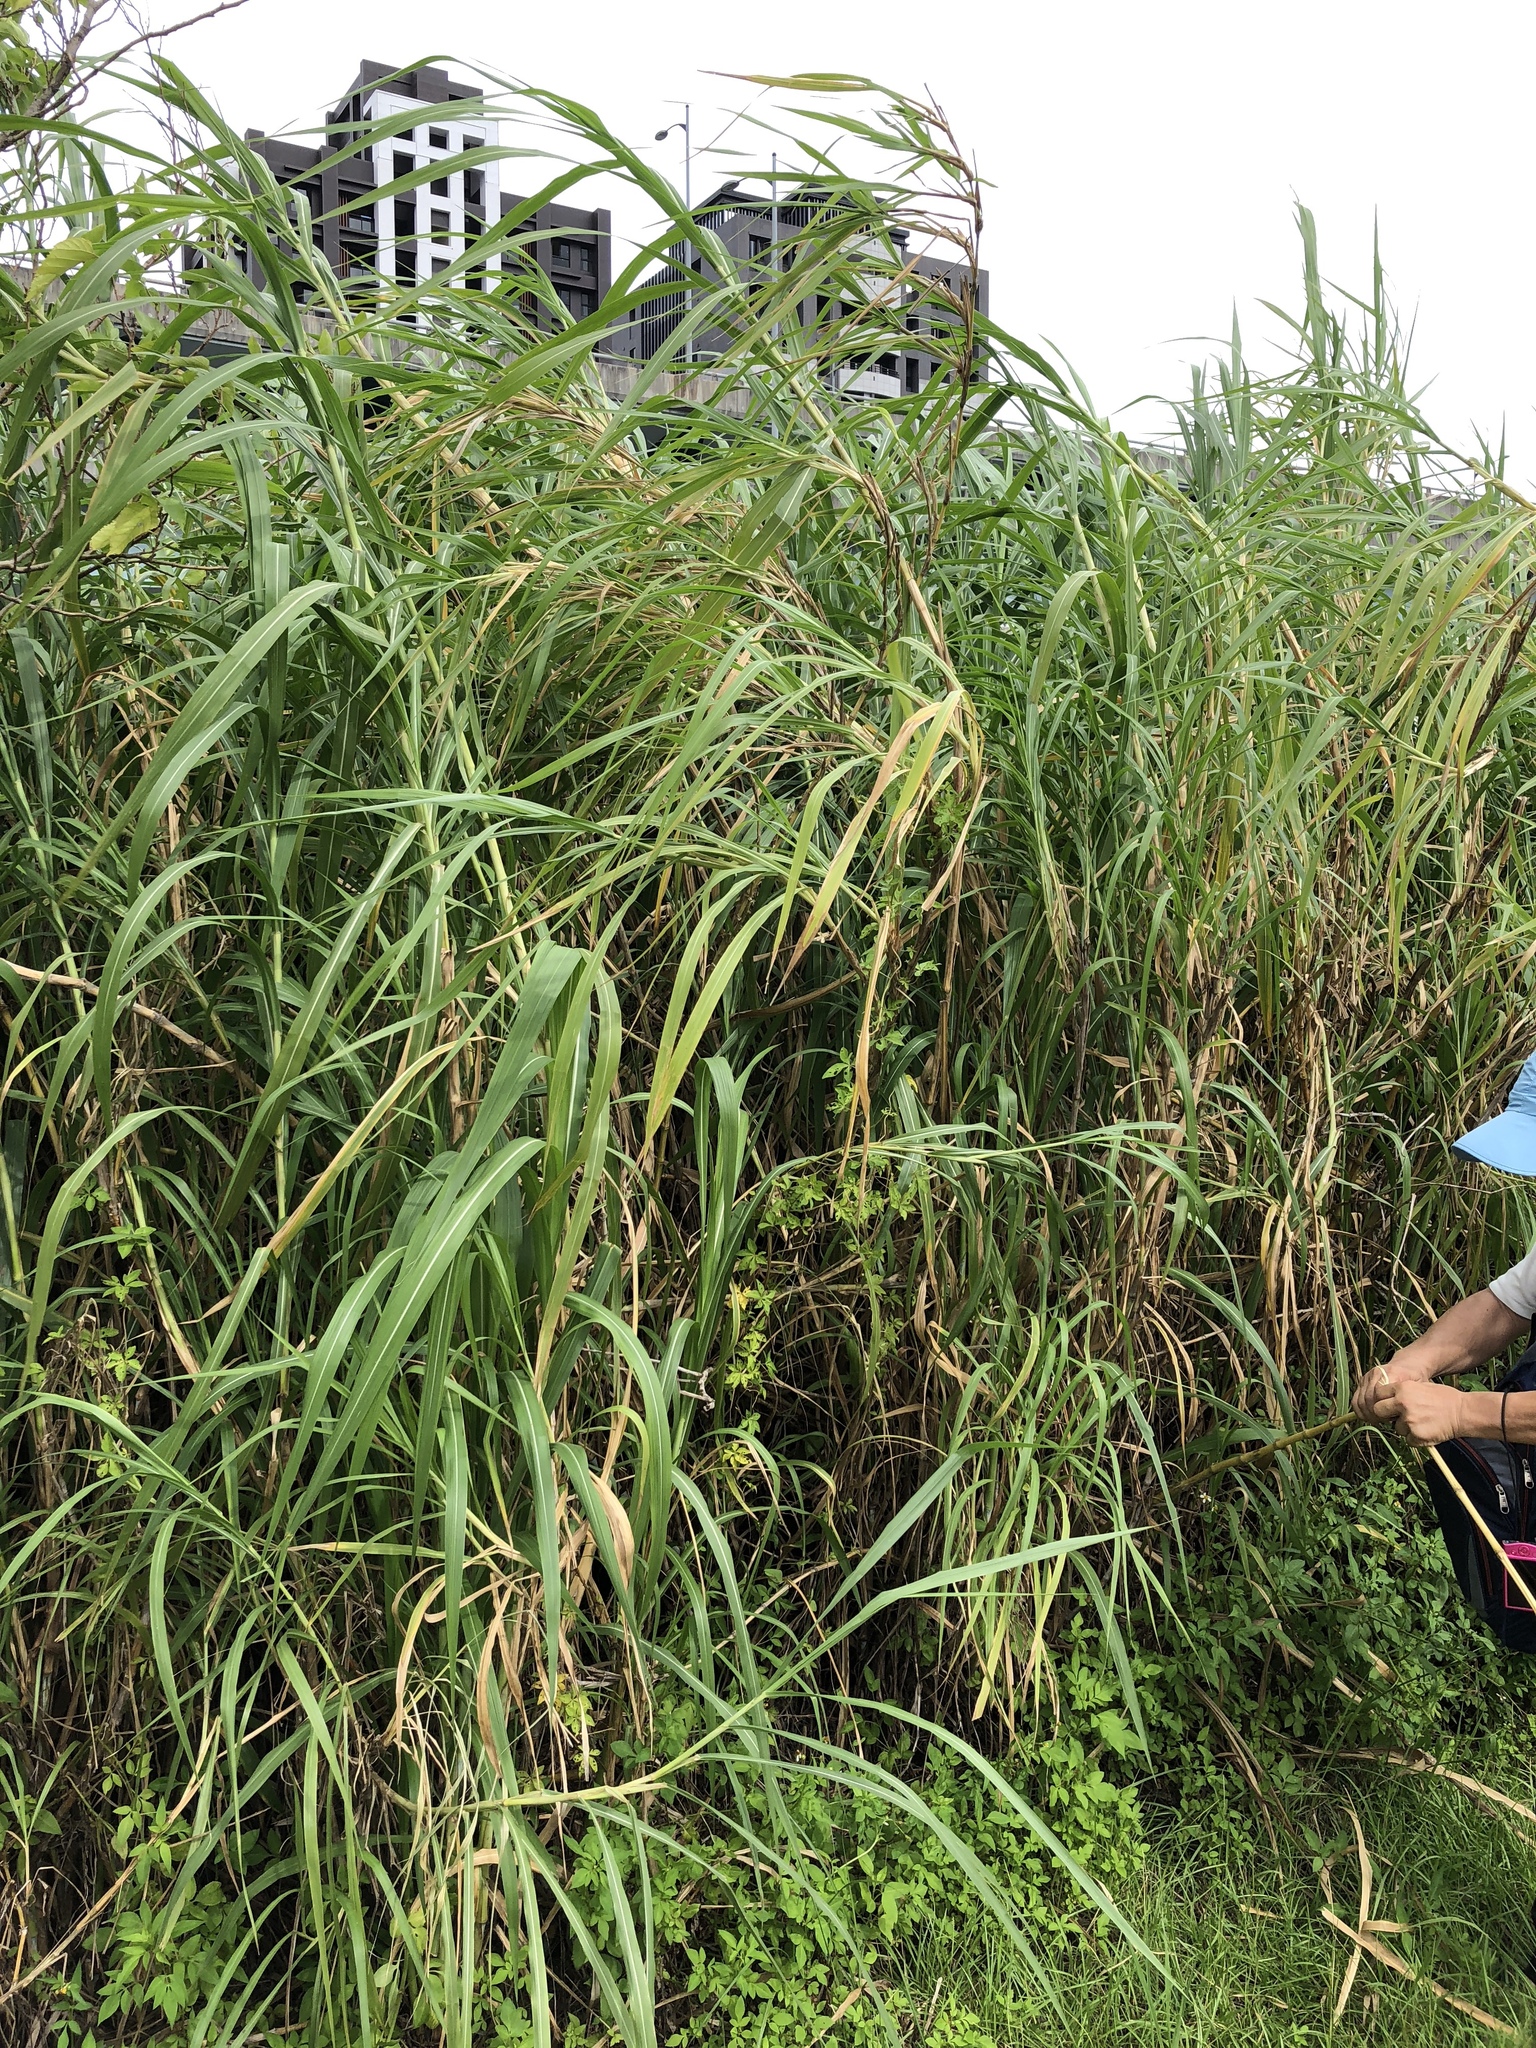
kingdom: Plantae
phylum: Tracheophyta
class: Liliopsida
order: Poales
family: Poaceae
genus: Cenchrus
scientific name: Cenchrus purpureus
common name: Elephant grass
